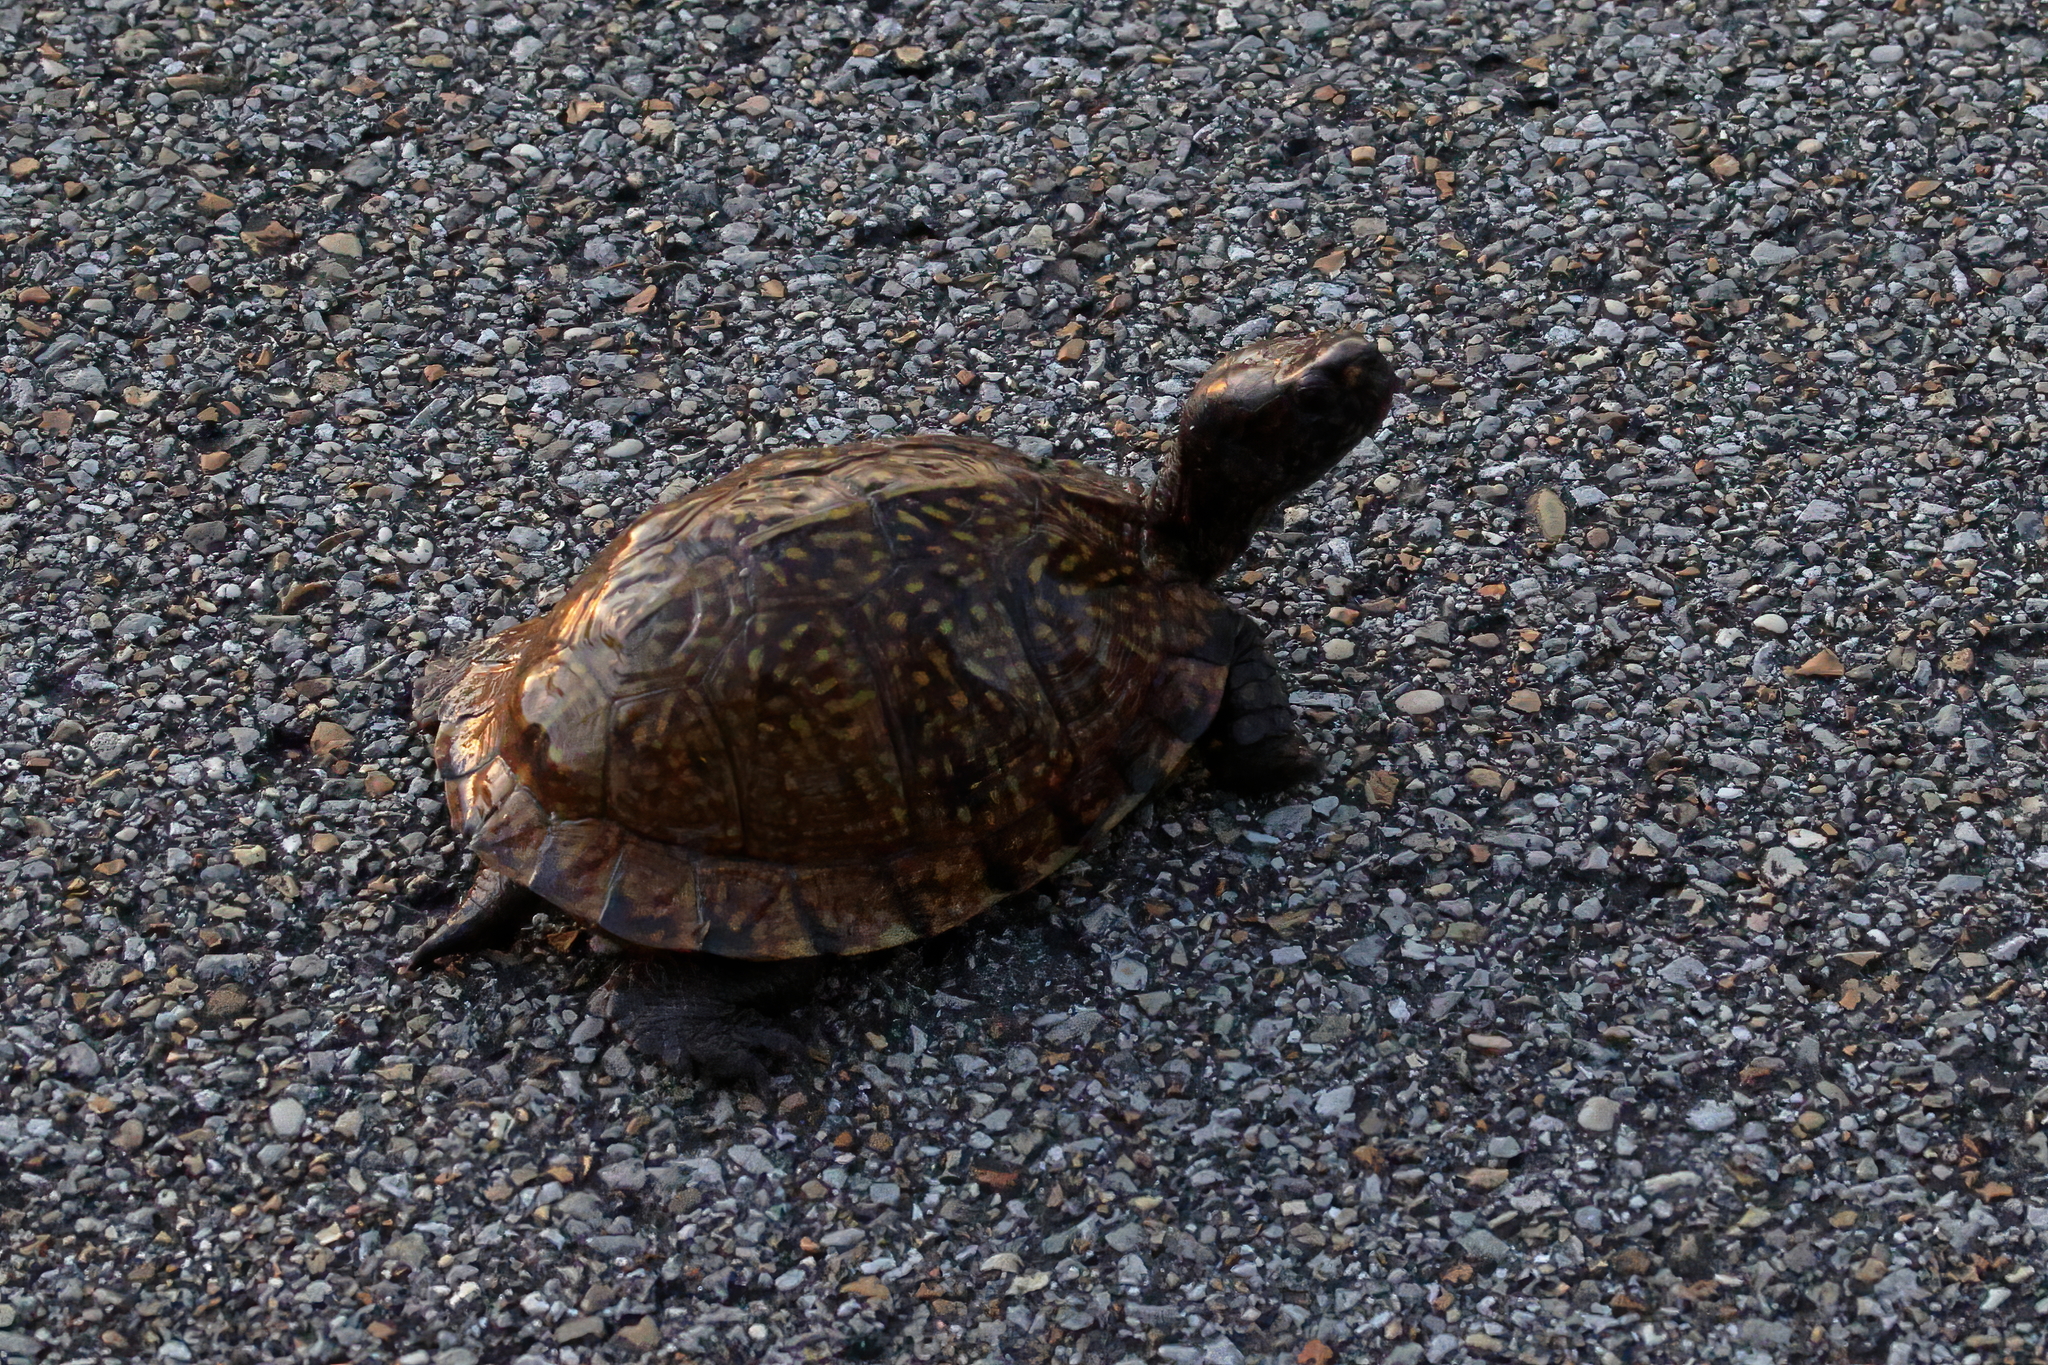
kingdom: Animalia
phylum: Chordata
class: Testudines
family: Emydidae
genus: Terrapene
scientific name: Terrapene carolina
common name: Common box turtle
